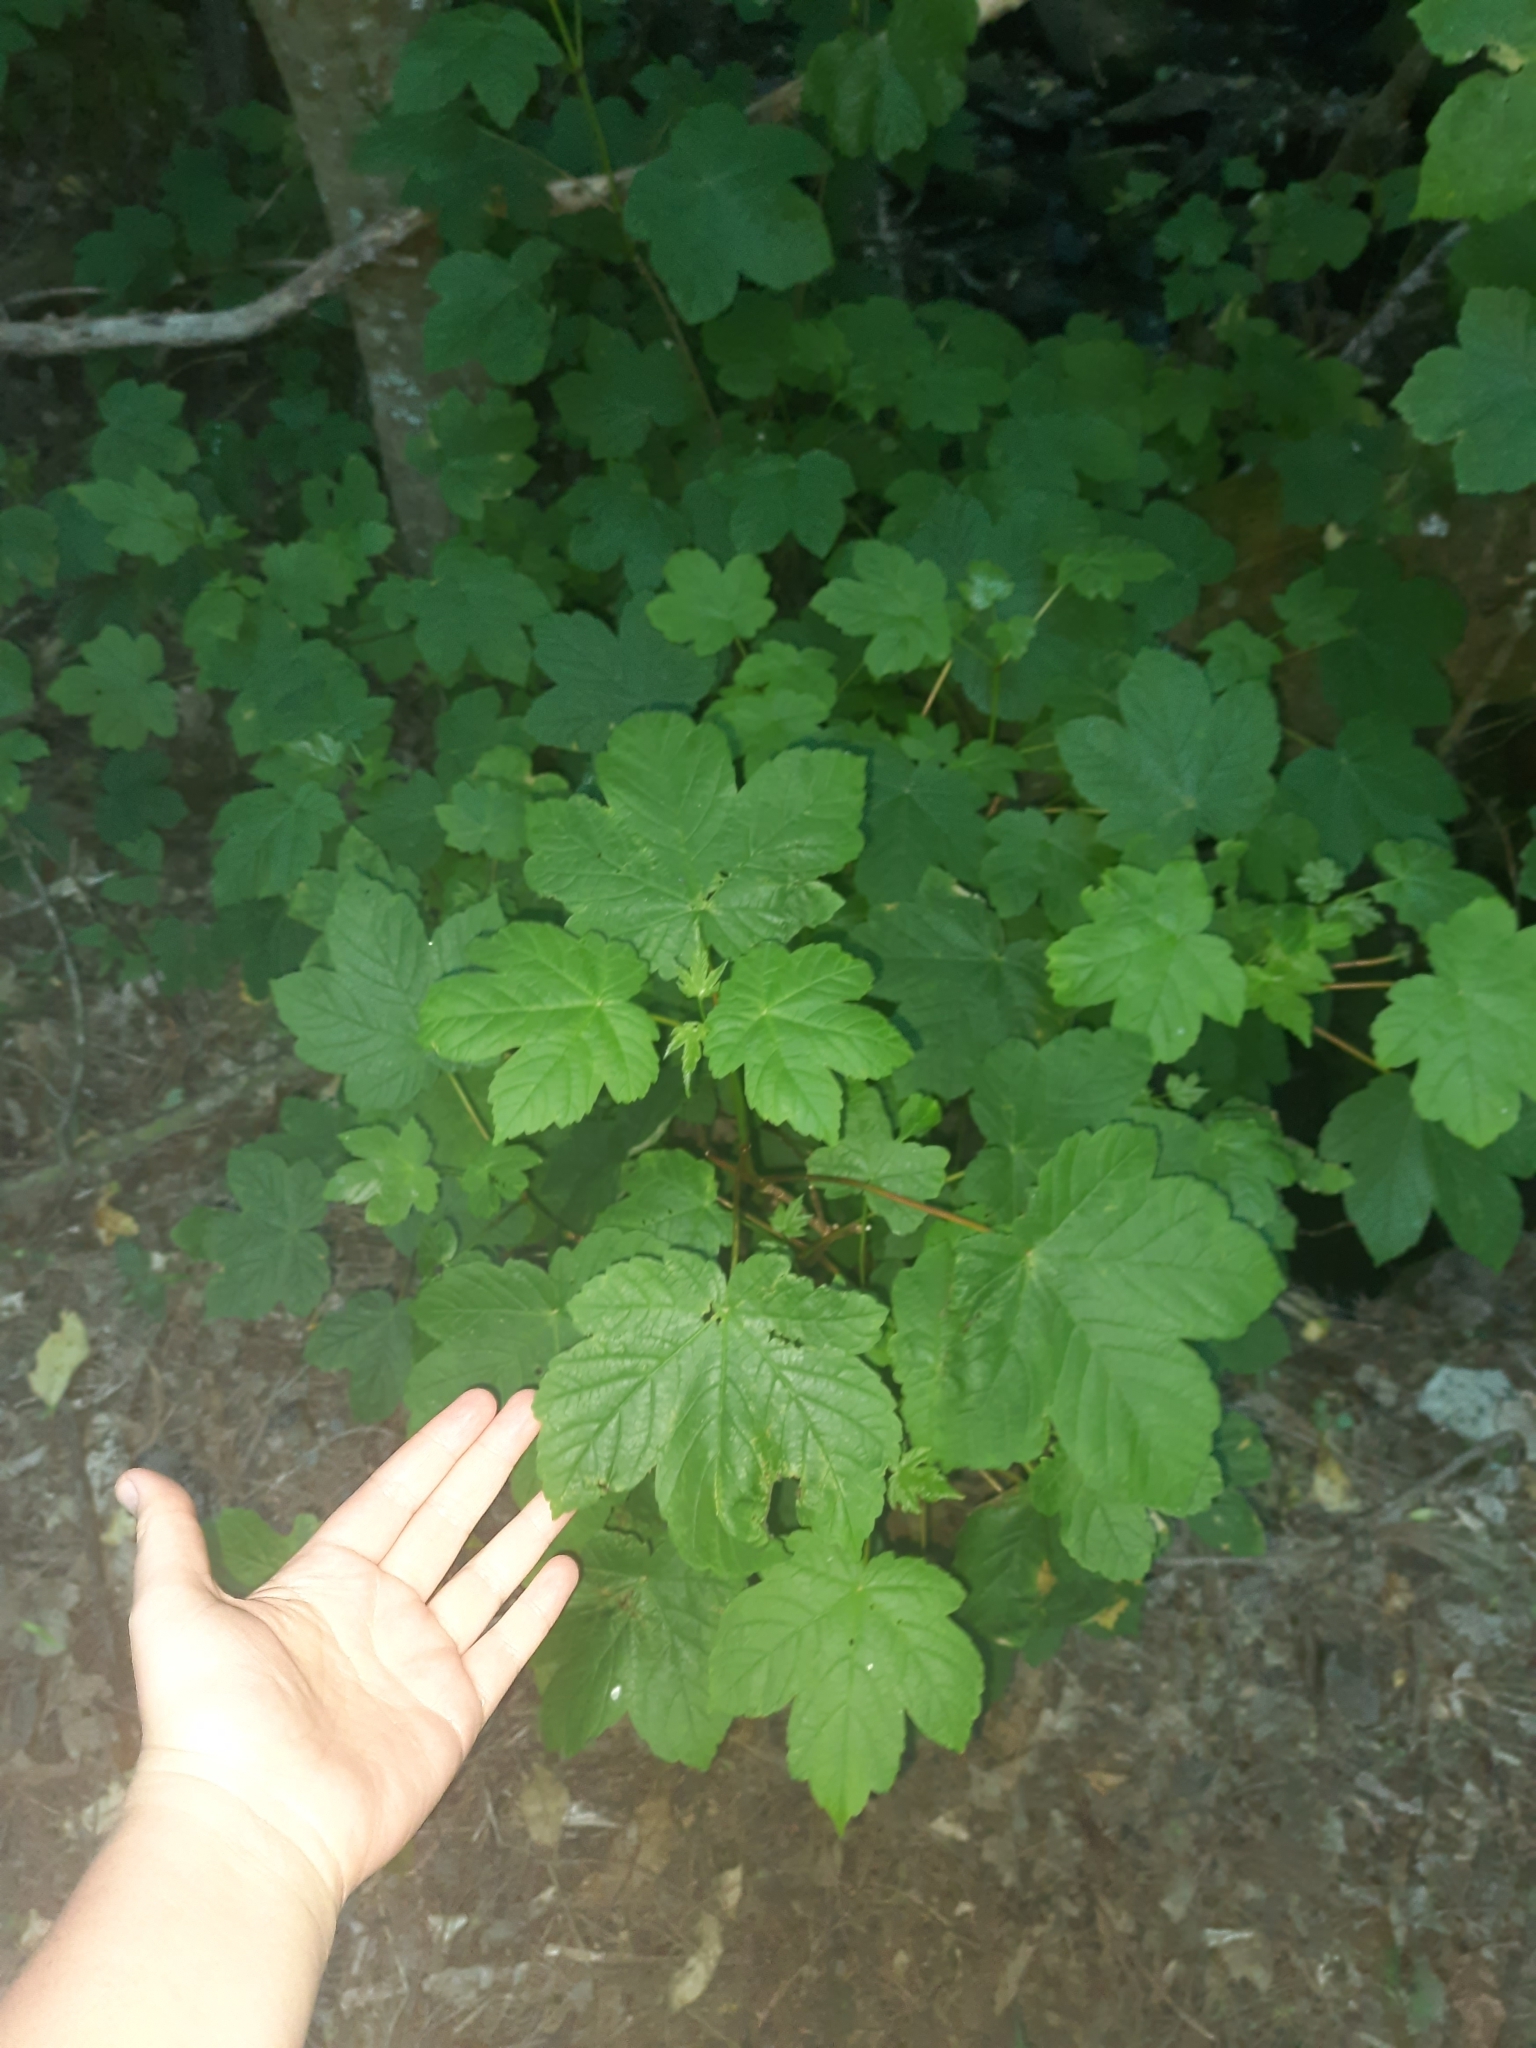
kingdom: Plantae
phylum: Tracheophyta
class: Magnoliopsida
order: Sapindales
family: Sapindaceae
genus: Acer
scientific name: Acer pseudoplatanus
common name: Sycamore
